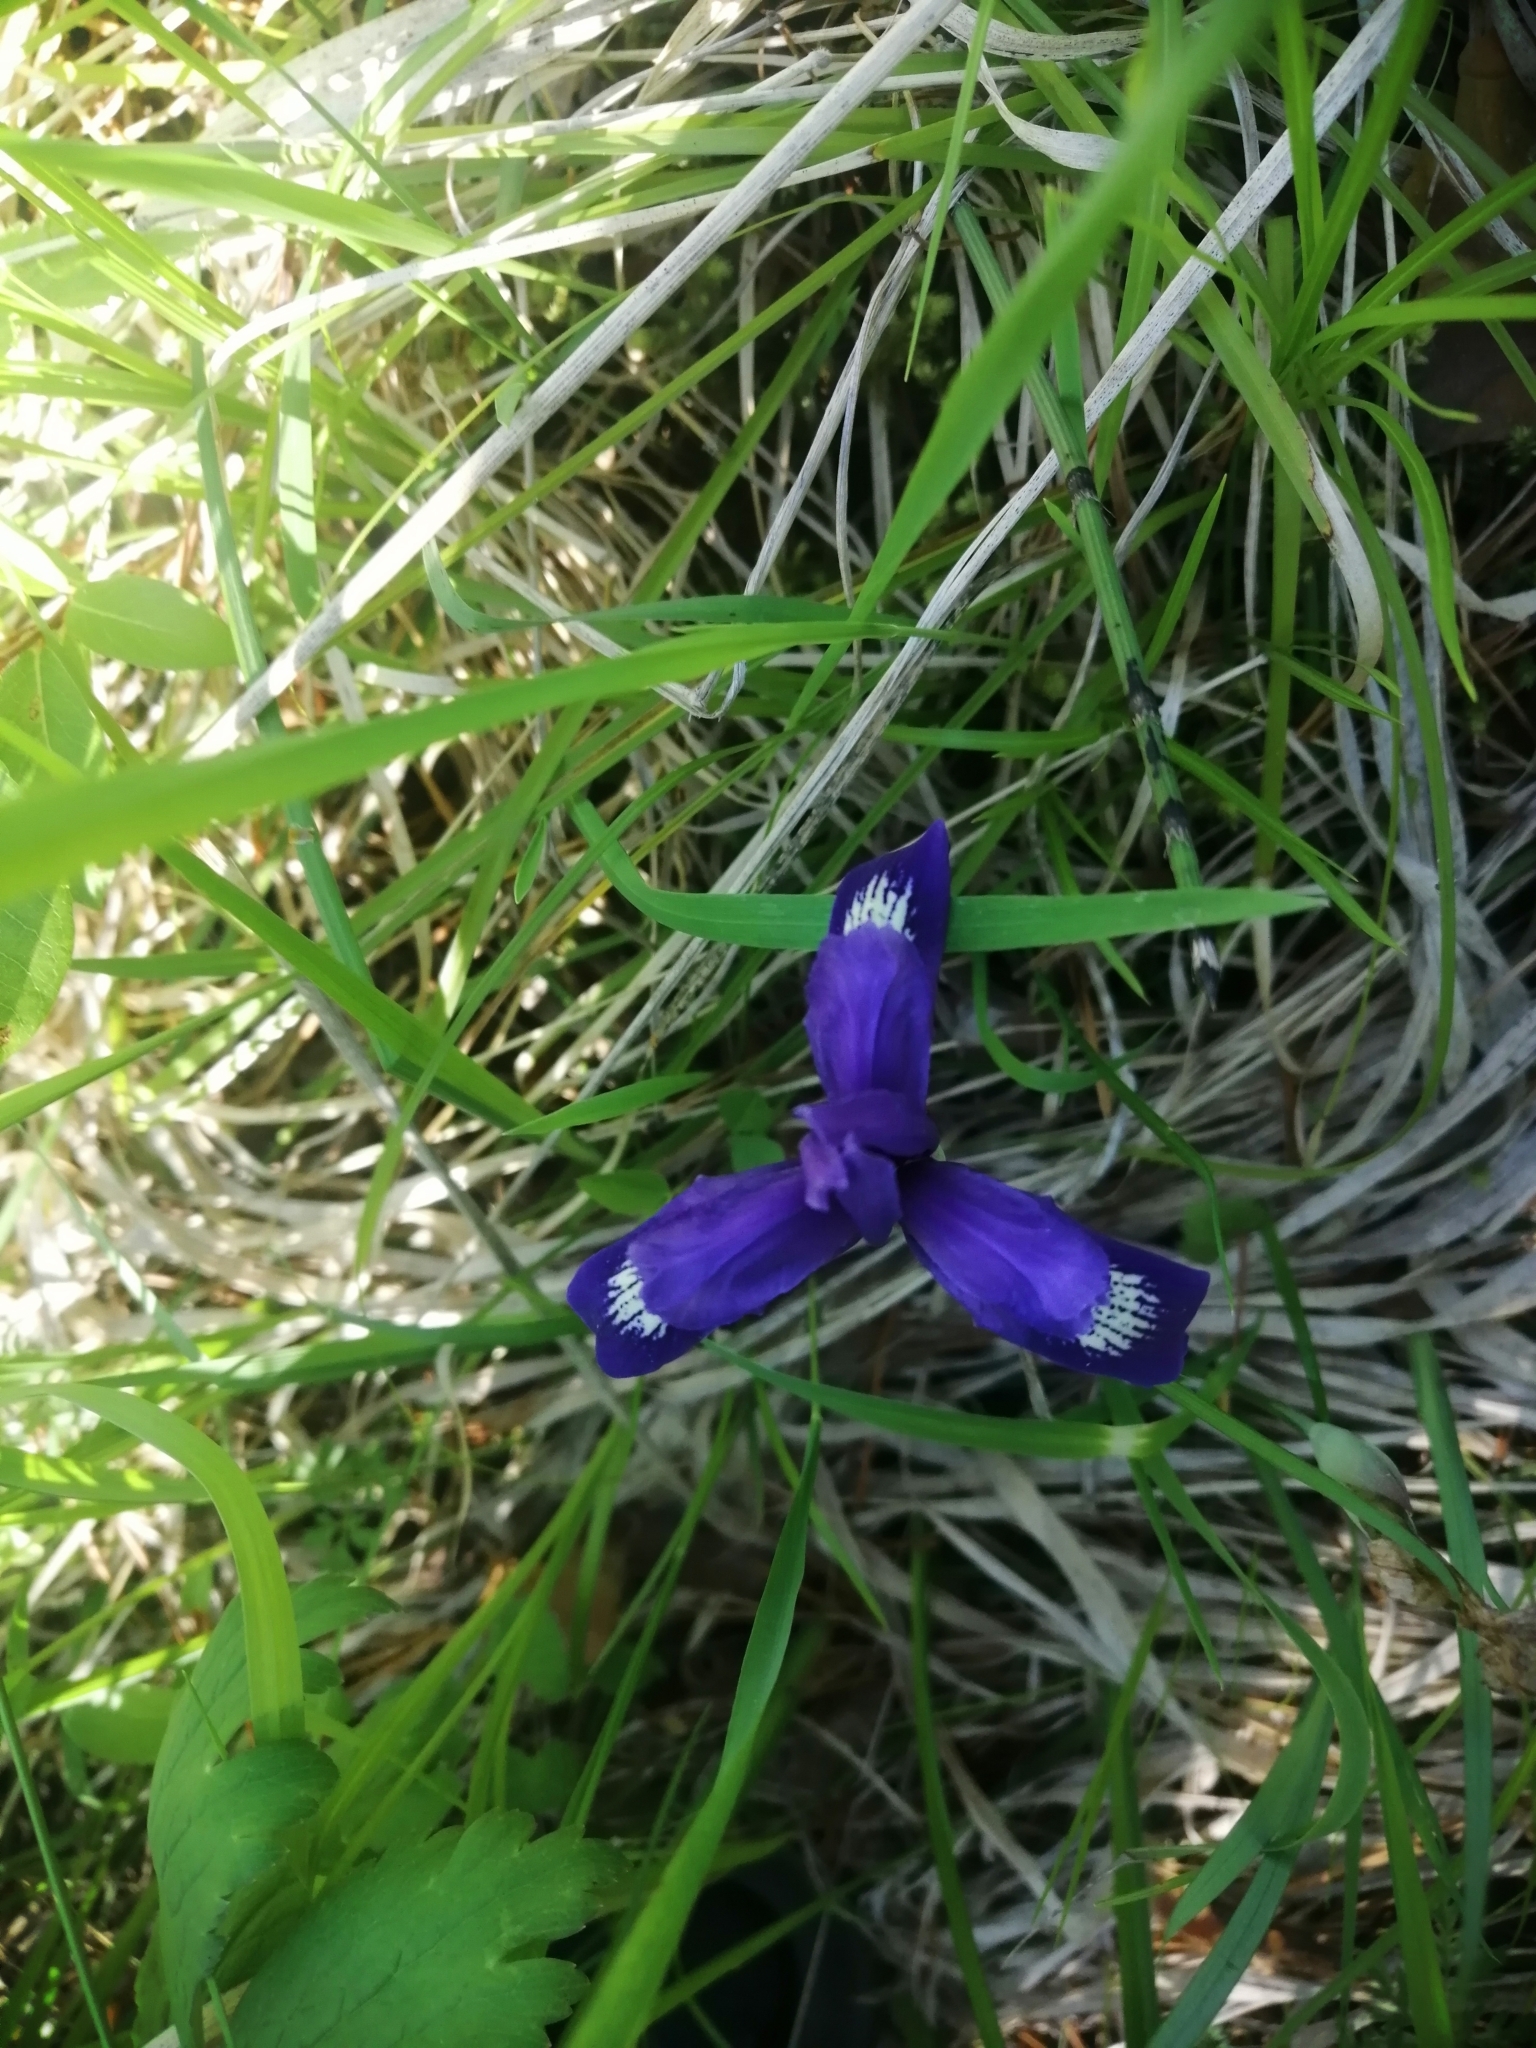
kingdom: Plantae
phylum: Tracheophyta
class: Liliopsida
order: Asparagales
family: Iridaceae
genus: Iris
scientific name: Iris ruthenica
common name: Purple-bract iris
